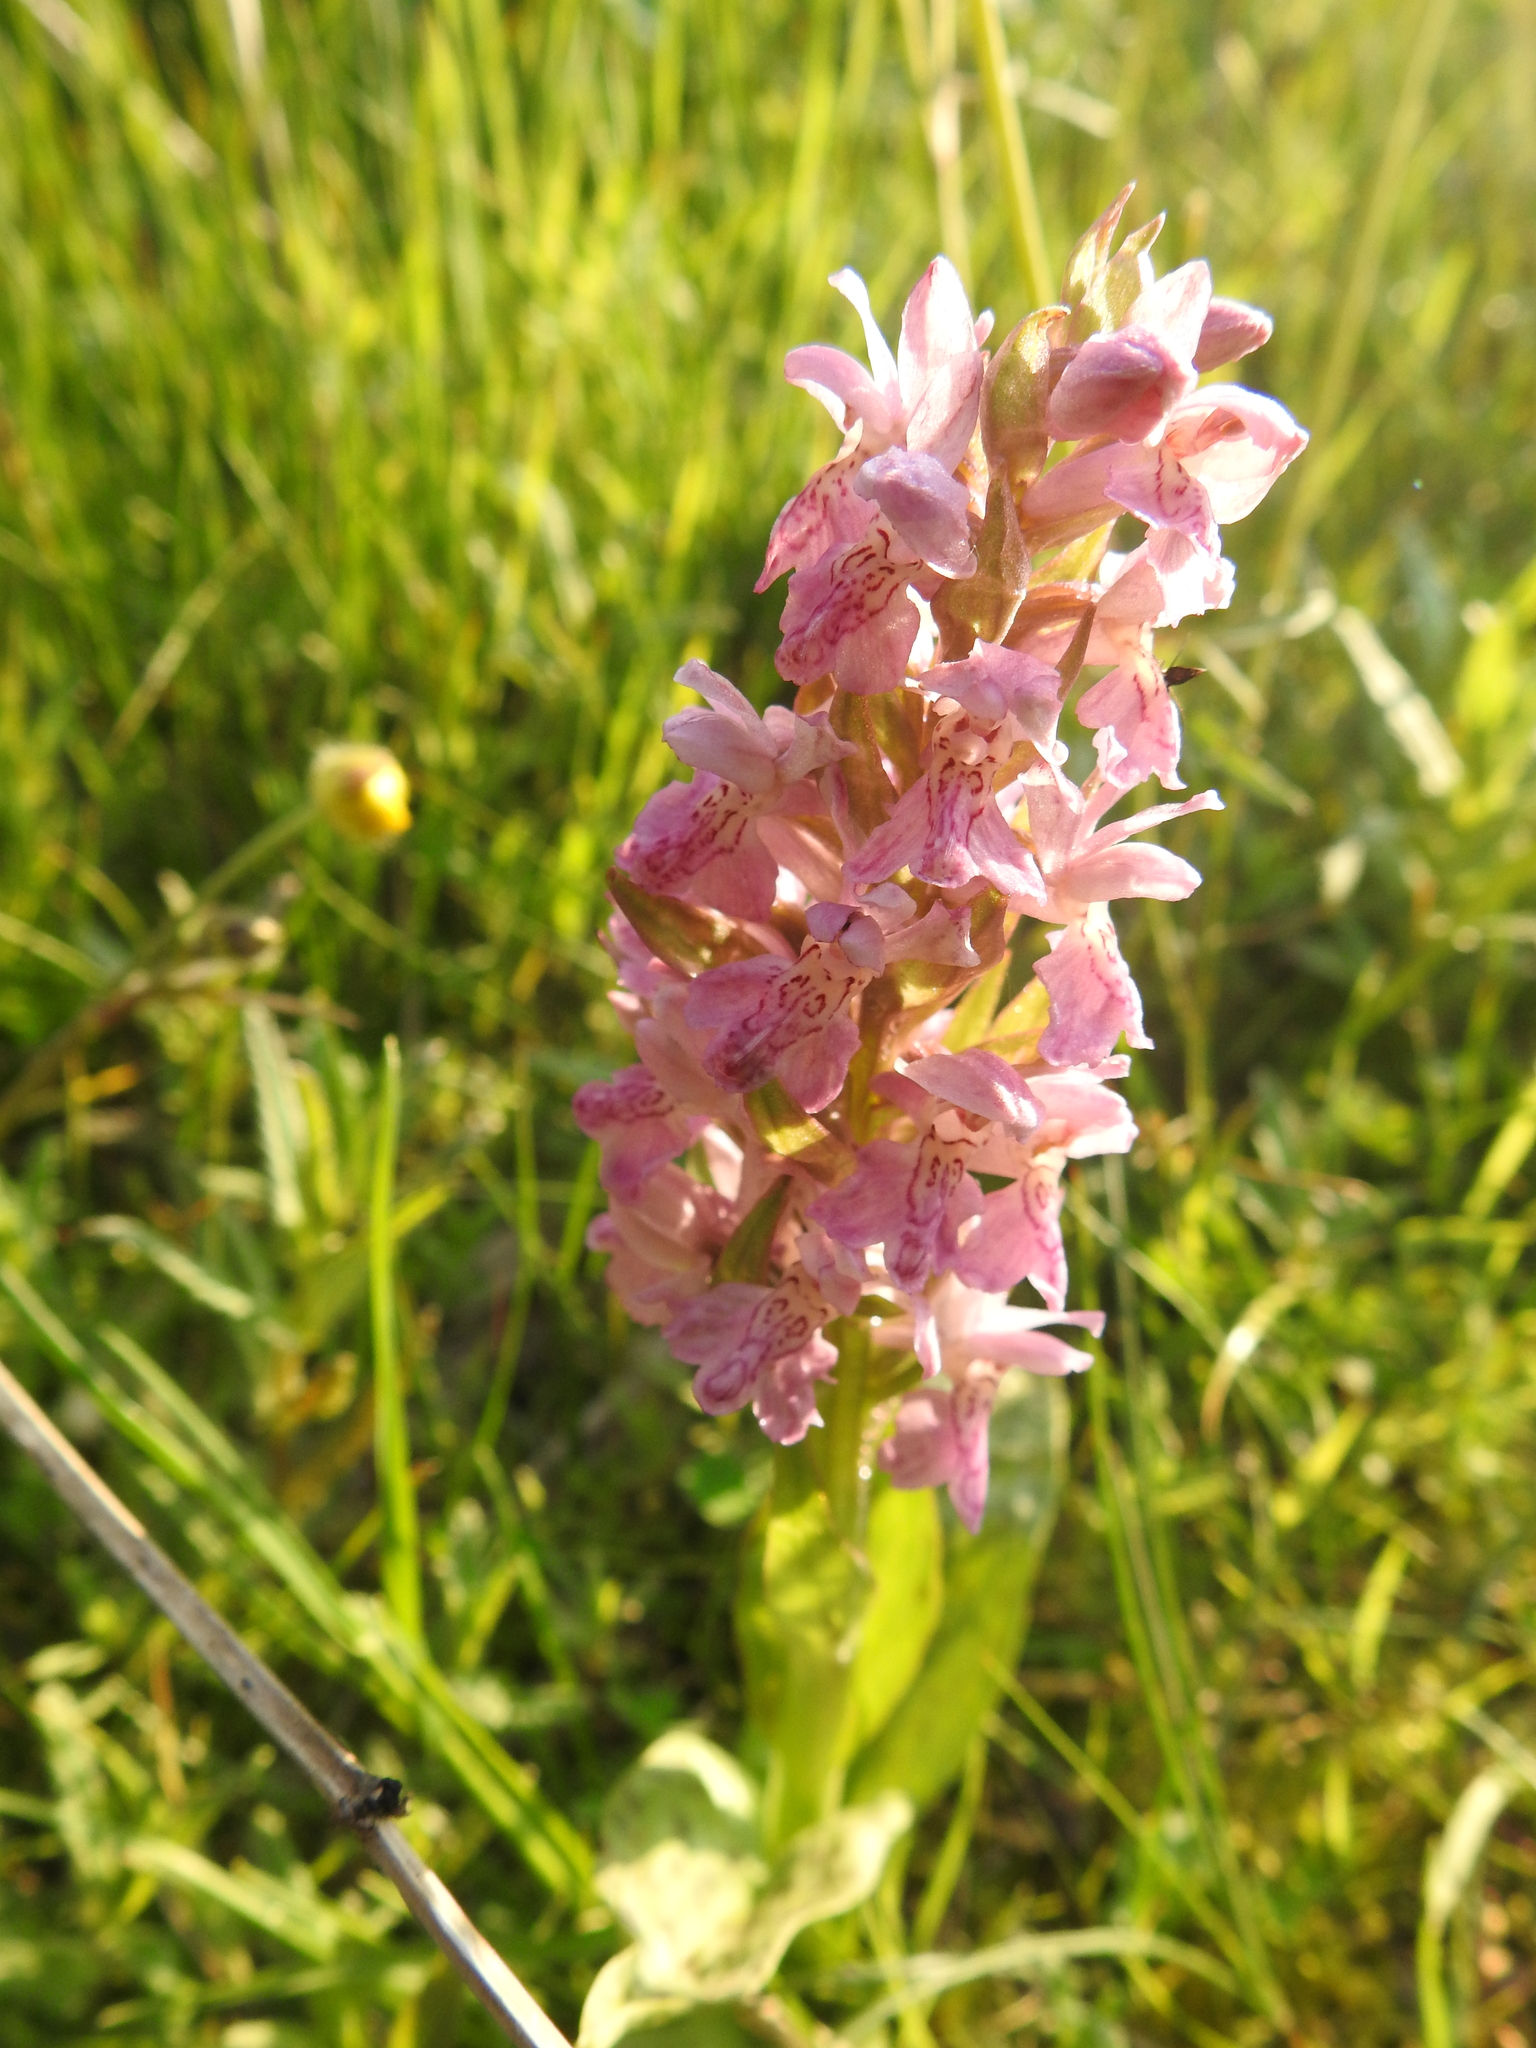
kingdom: Plantae
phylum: Tracheophyta
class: Liliopsida
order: Asparagales
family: Orchidaceae
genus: Dactylorhiza
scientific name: Dactylorhiza majalis
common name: Marsh orchid
